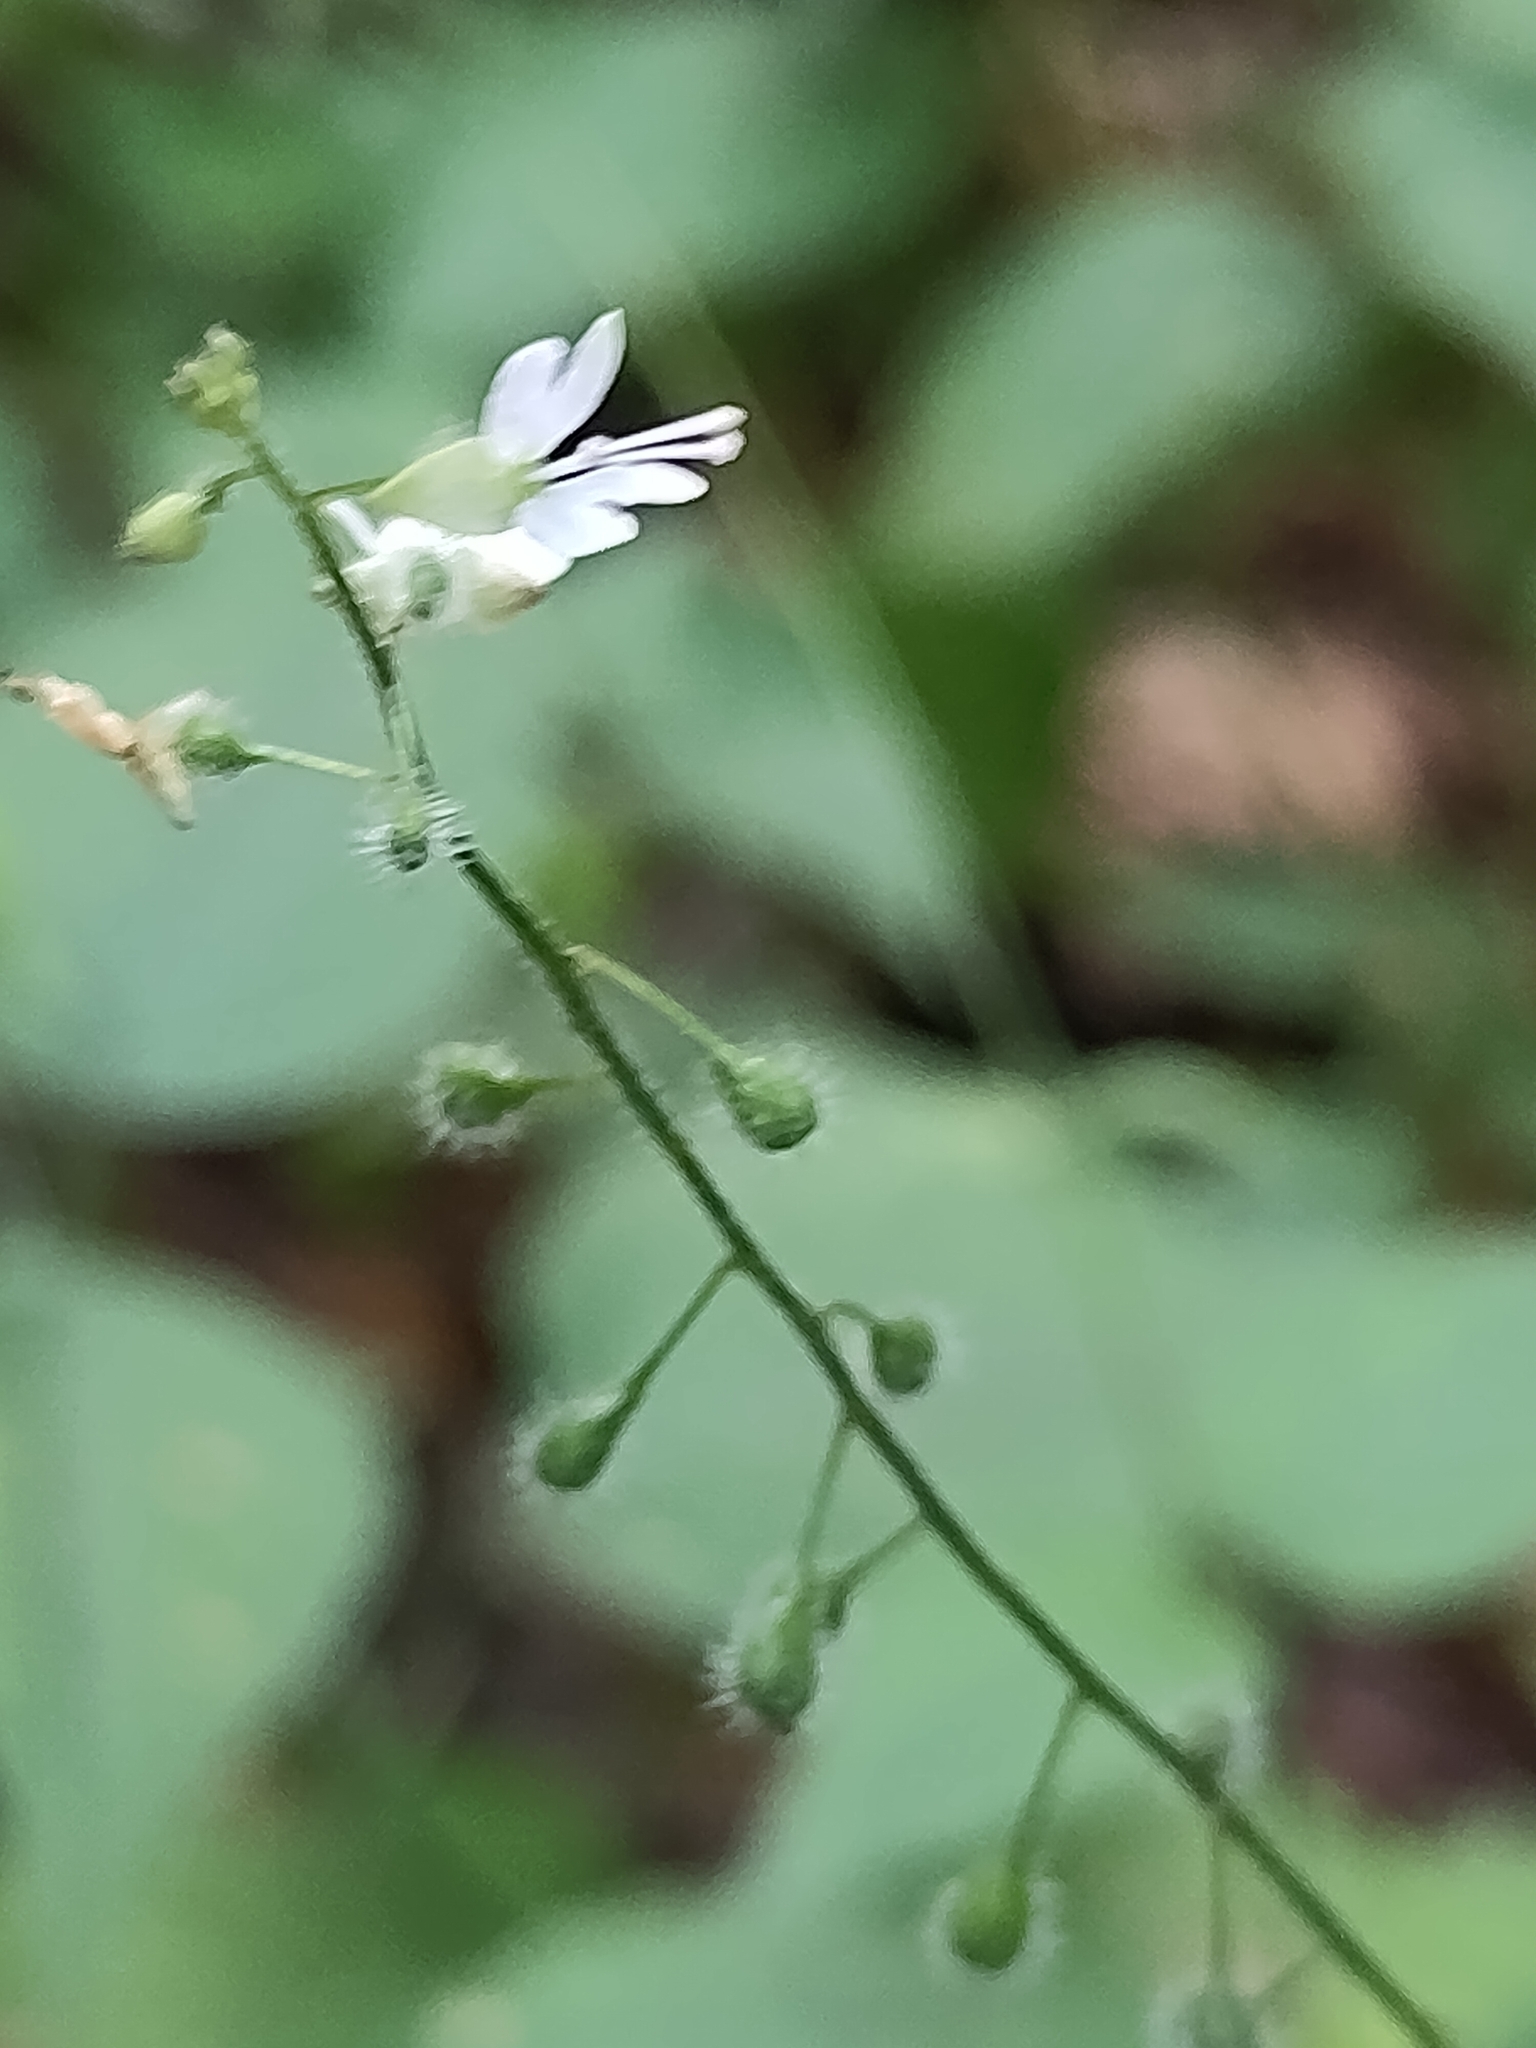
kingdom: Plantae
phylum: Tracheophyta
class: Magnoliopsida
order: Myrtales
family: Onagraceae
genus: Circaea
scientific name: Circaea lutetiana
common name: Enchanter's-nightshade
